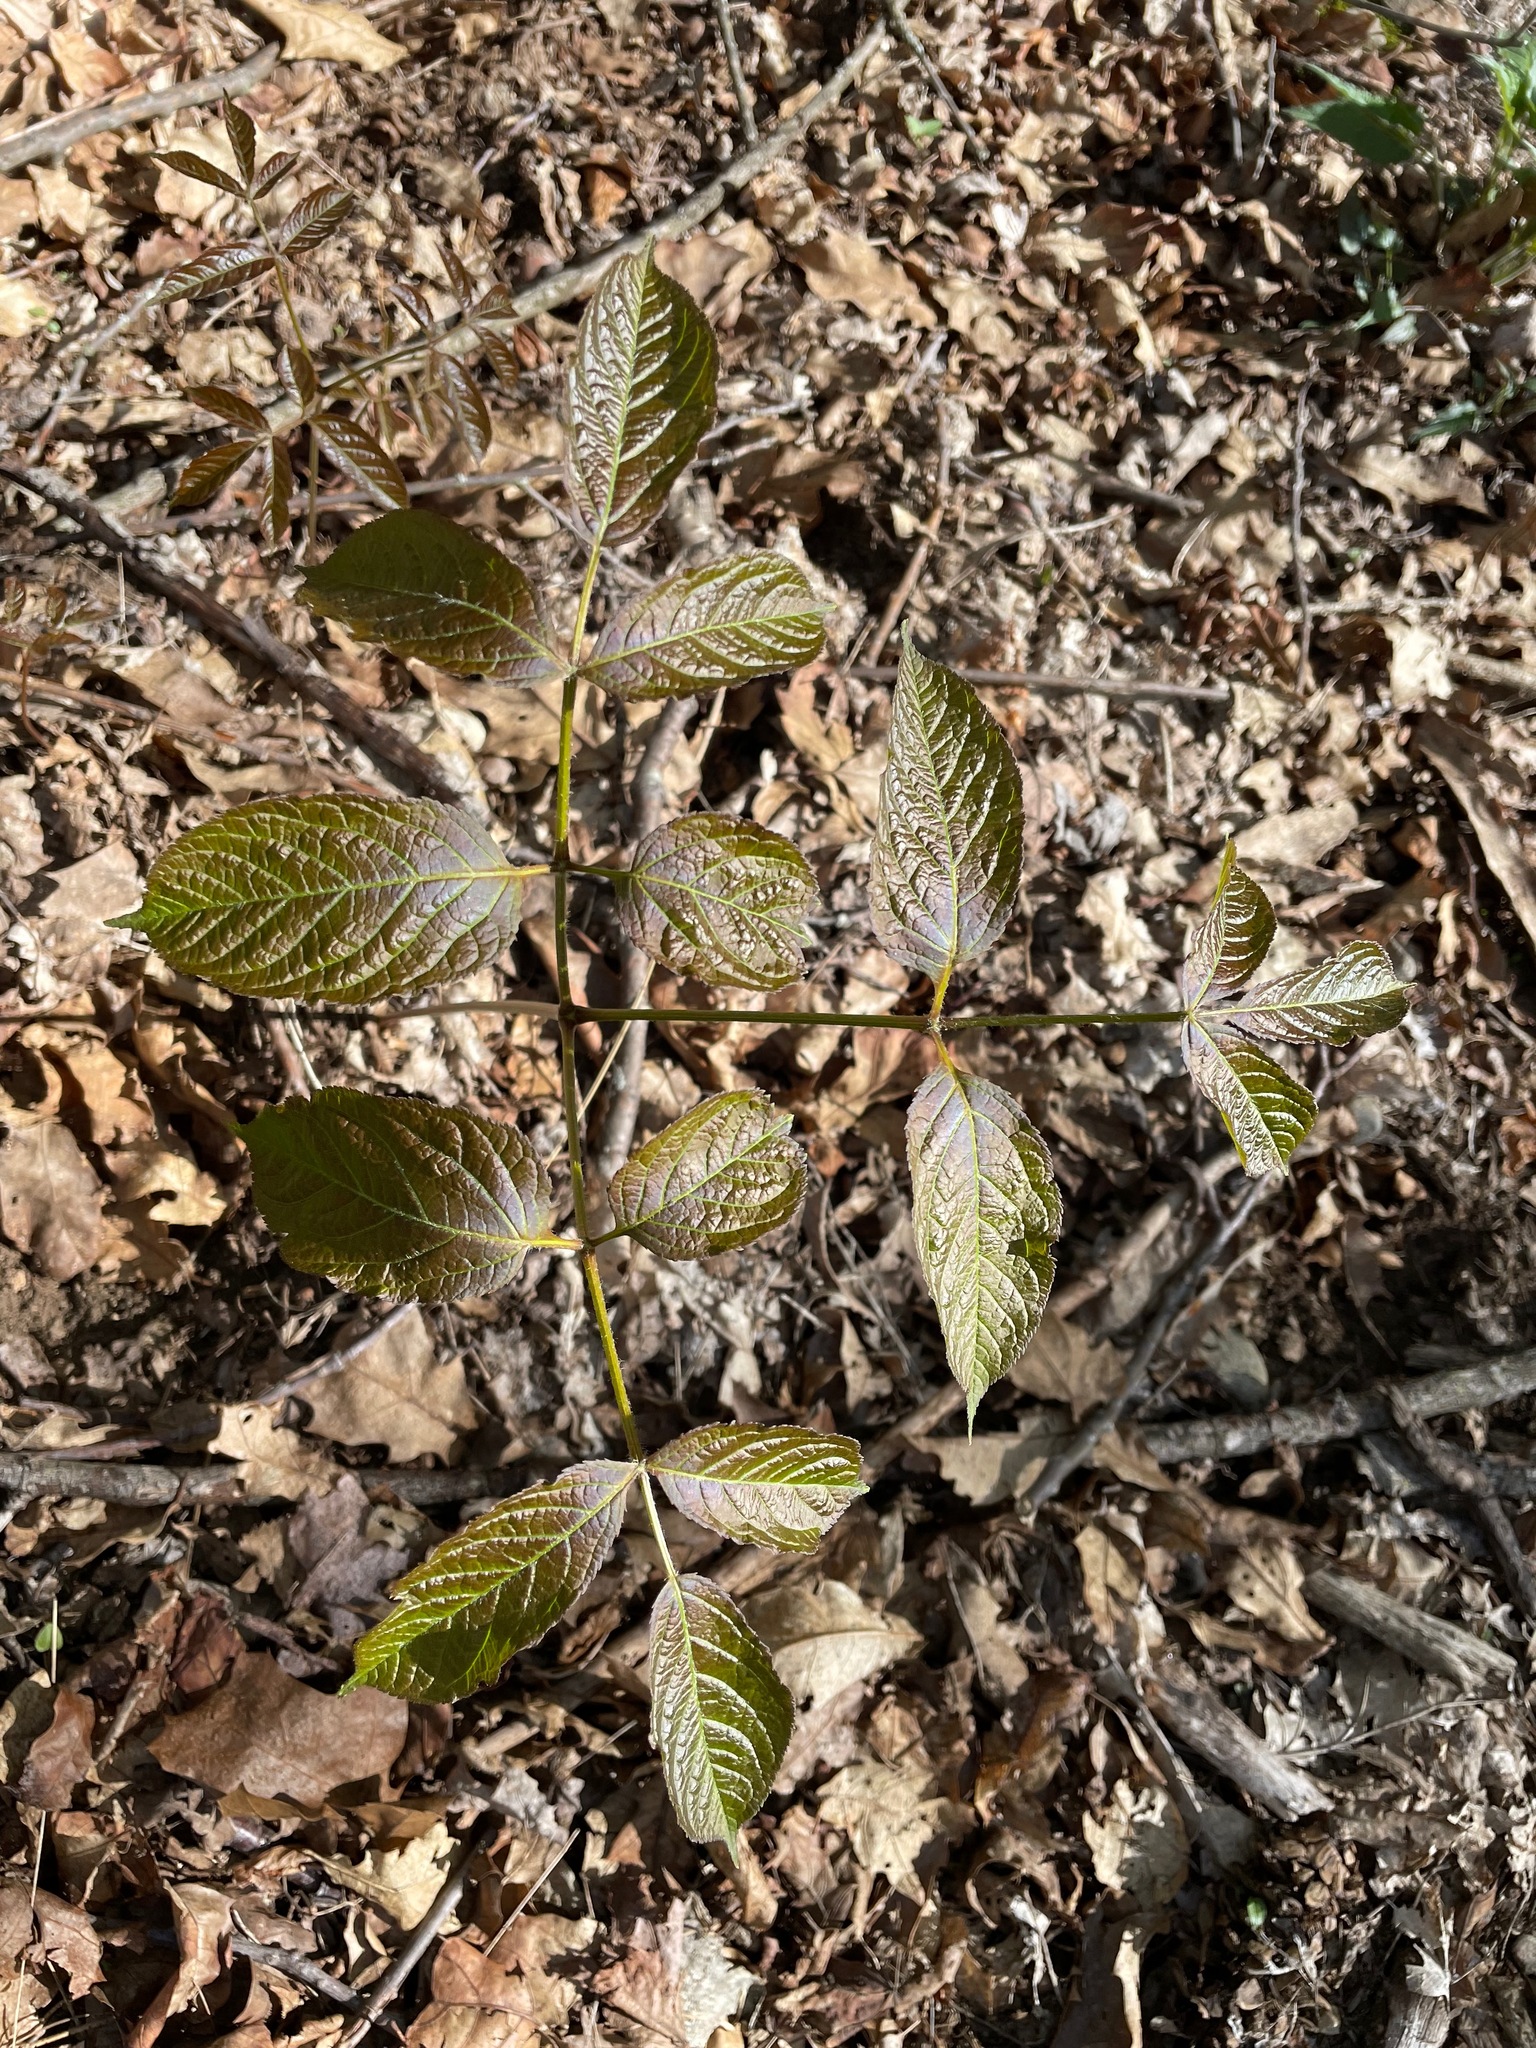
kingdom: Plantae
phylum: Tracheophyta
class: Magnoliopsida
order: Apiales
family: Araliaceae
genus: Aralia
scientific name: Aralia nudicaulis
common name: Wild sarsaparilla
